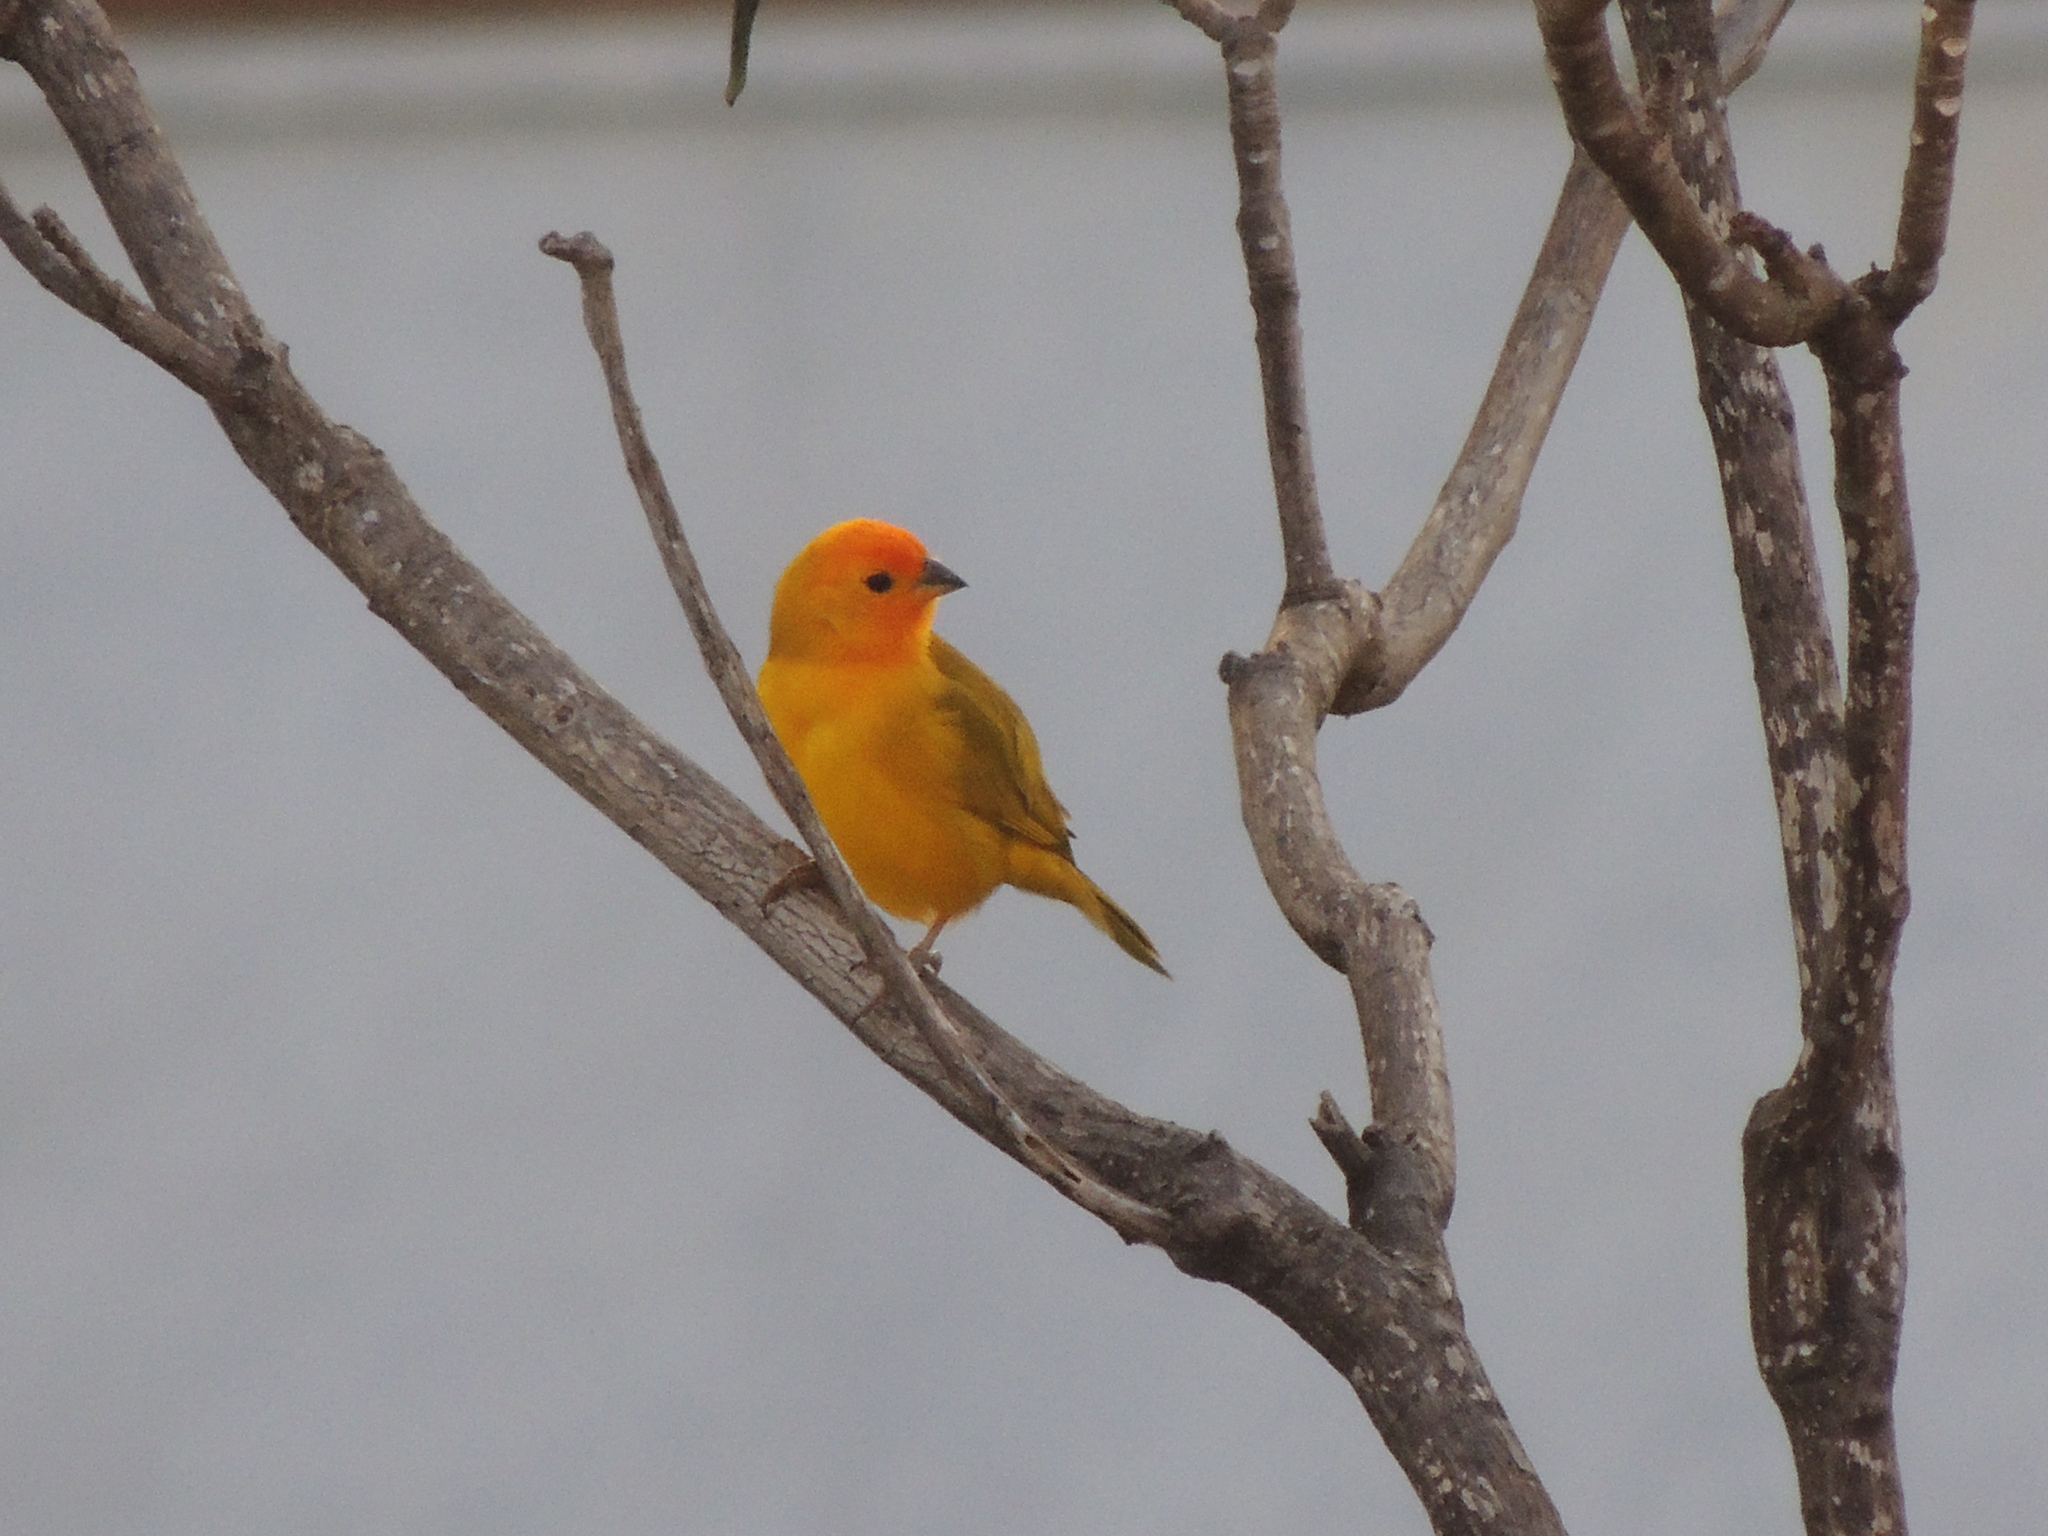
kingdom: Animalia
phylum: Chordata
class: Aves
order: Passeriformes
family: Thraupidae
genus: Sicalis
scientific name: Sicalis flaveola
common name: Saffron finch
